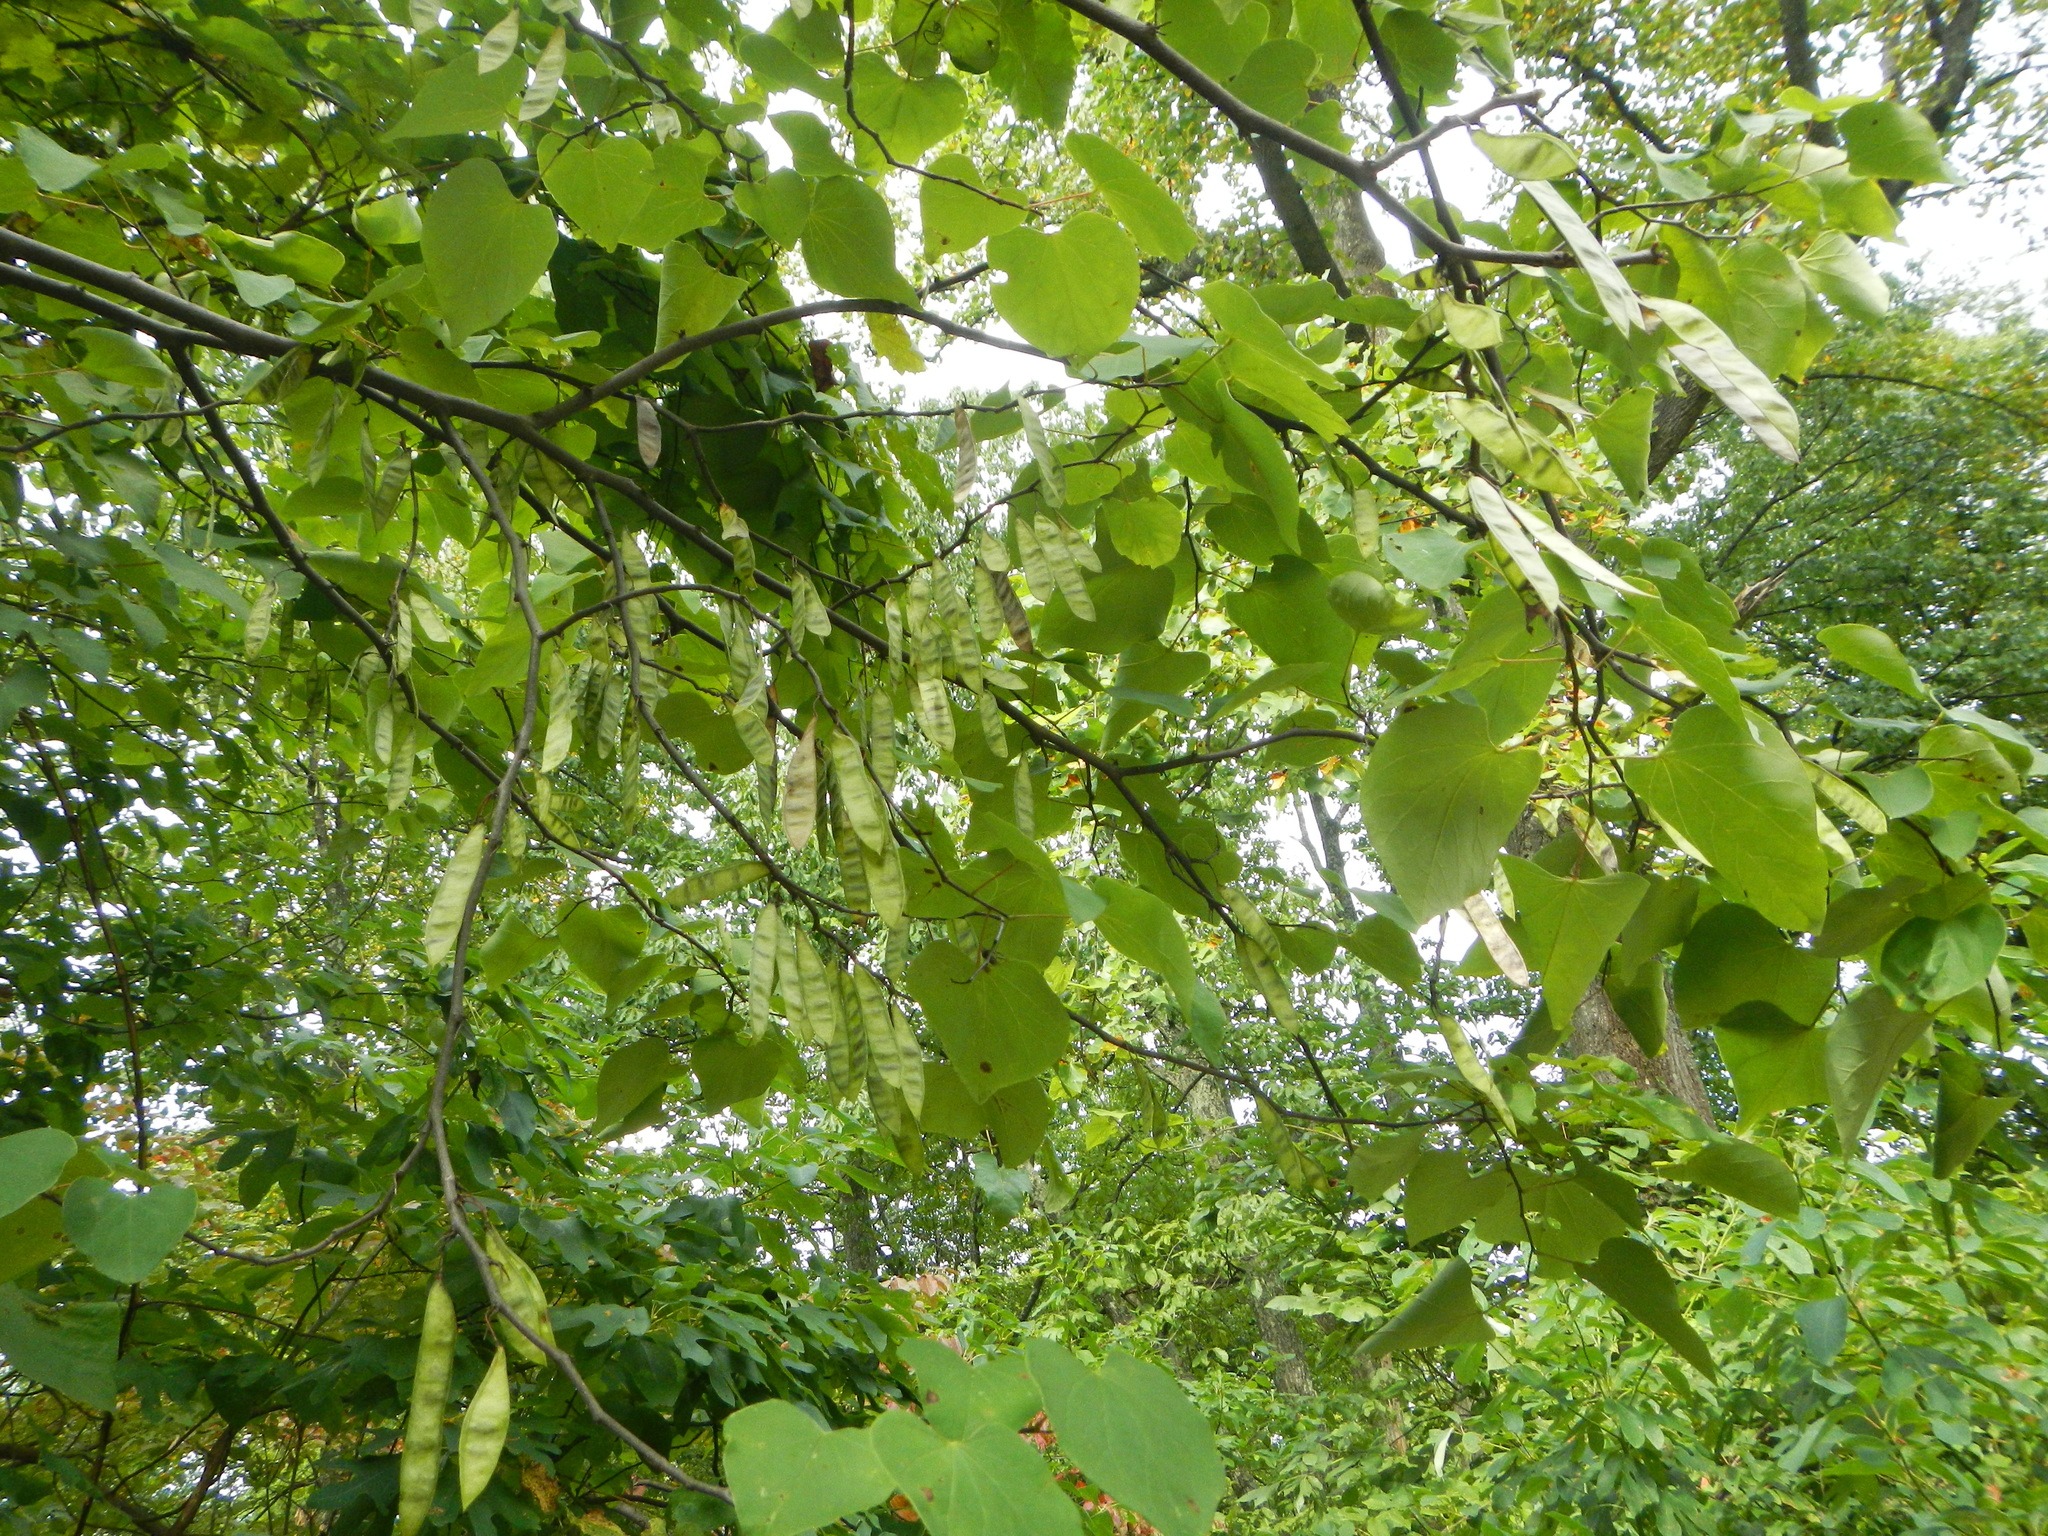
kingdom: Plantae
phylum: Tracheophyta
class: Magnoliopsida
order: Fabales
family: Fabaceae
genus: Cercis
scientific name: Cercis canadensis
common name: Eastern redbud
